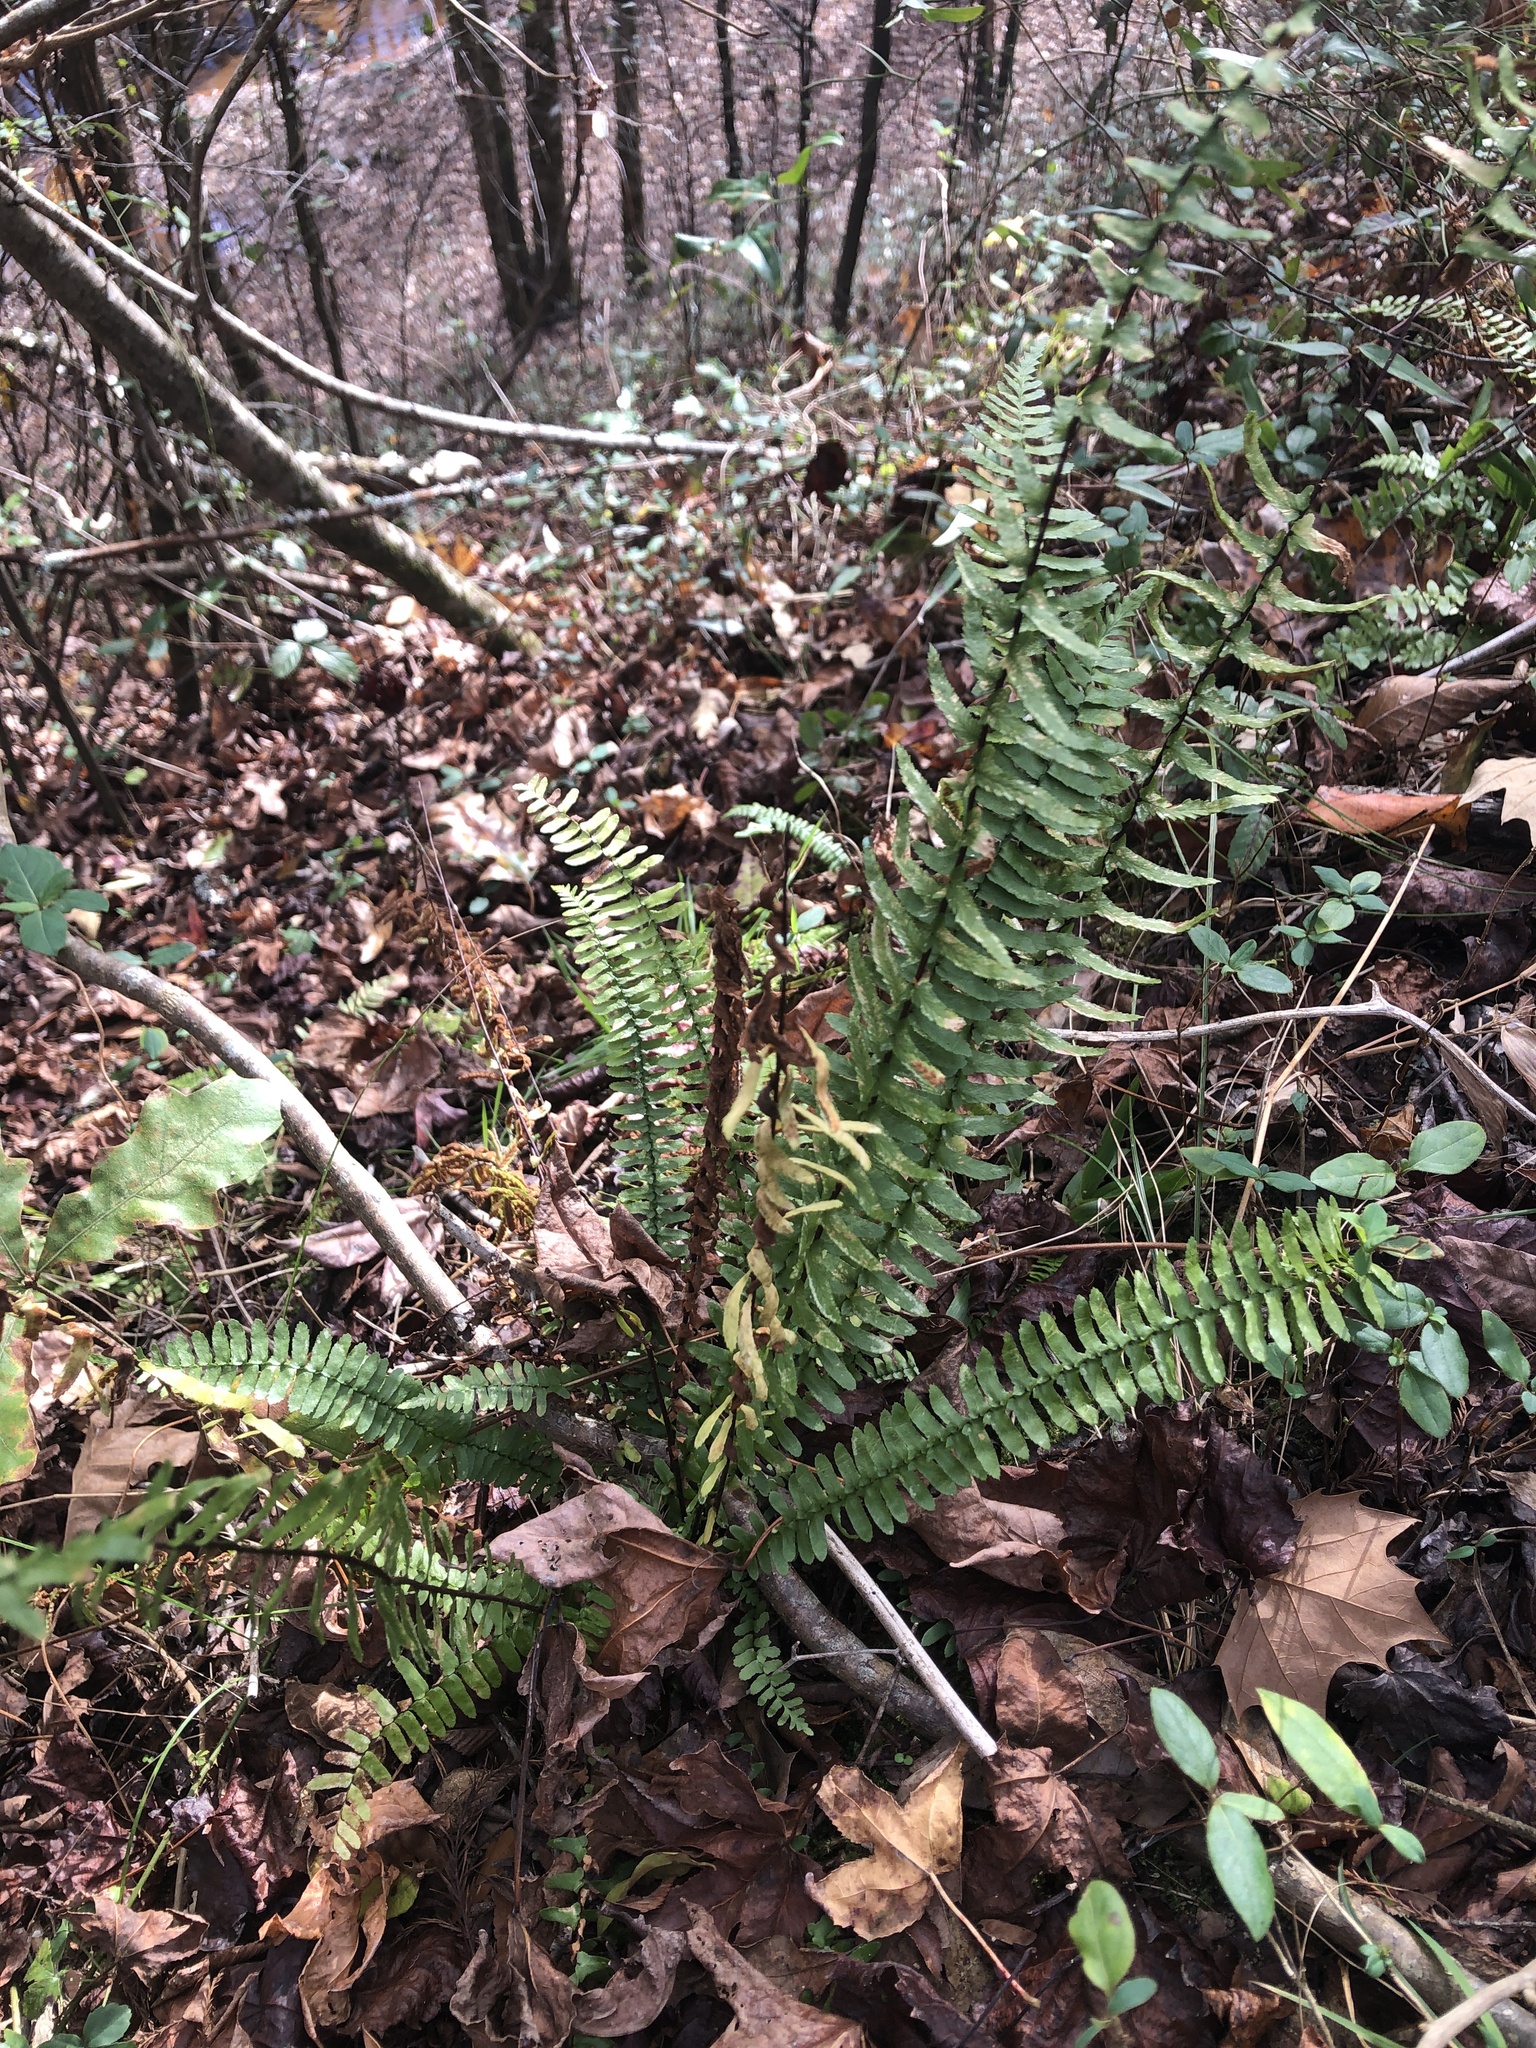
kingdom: Plantae
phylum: Tracheophyta
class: Polypodiopsida
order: Polypodiales
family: Aspleniaceae
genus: Asplenium
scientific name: Asplenium platyneuron
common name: Ebony spleenwort
